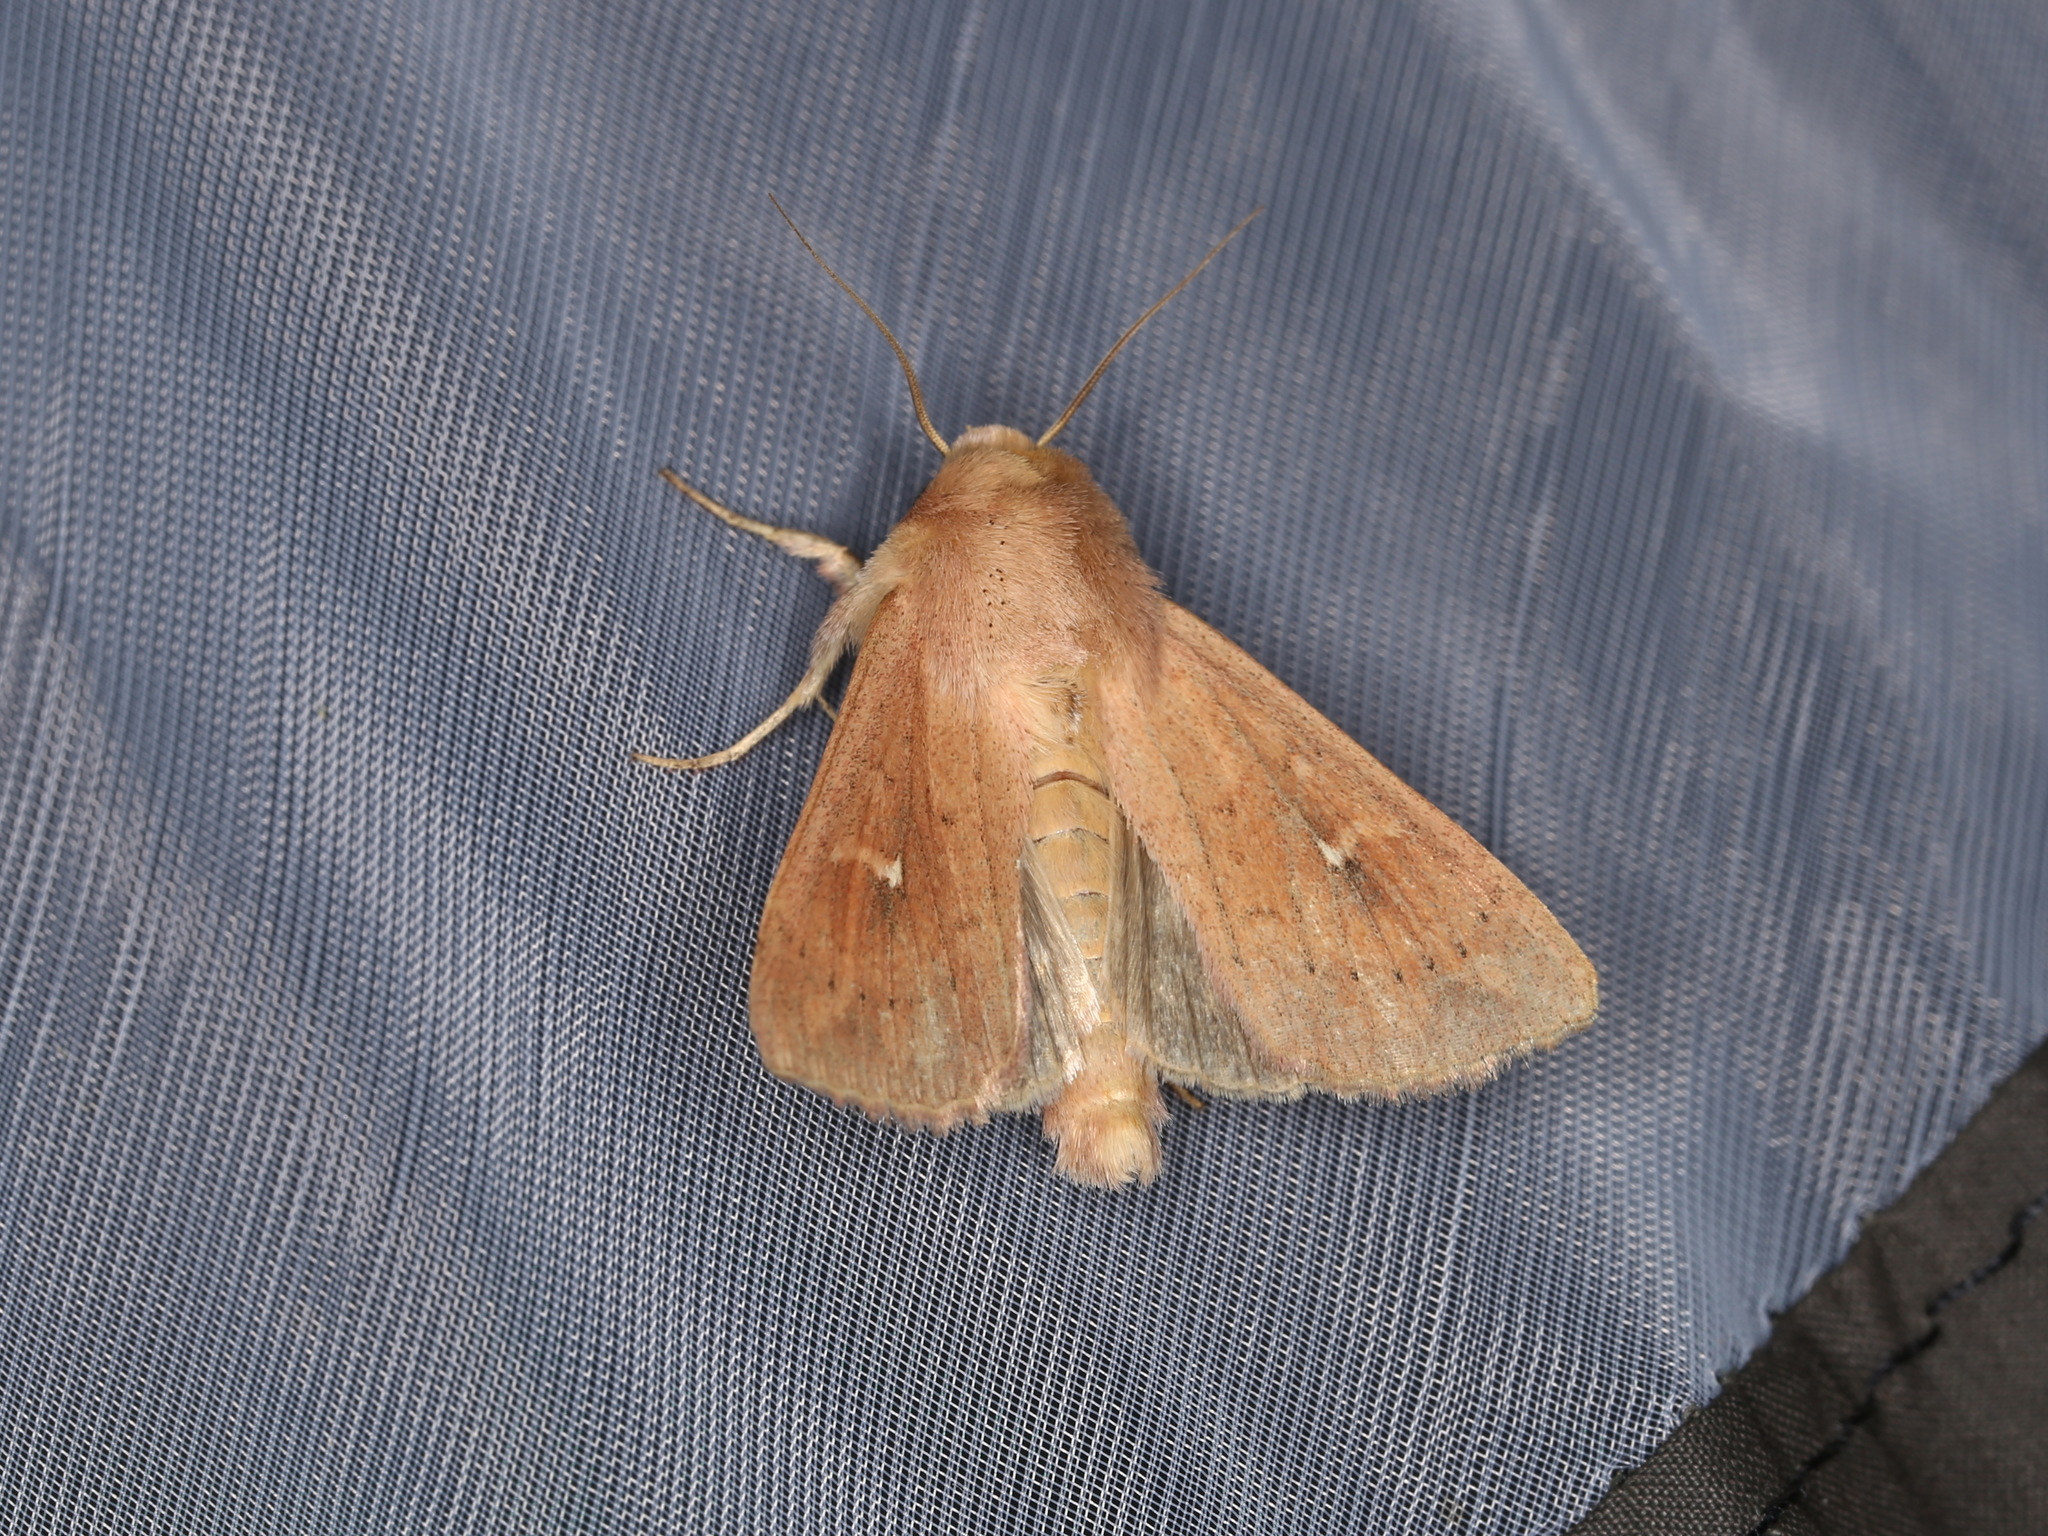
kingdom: Animalia
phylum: Arthropoda
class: Insecta
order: Lepidoptera
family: Noctuidae
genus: Mythimna
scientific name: Mythimna ferrago
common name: Clay
